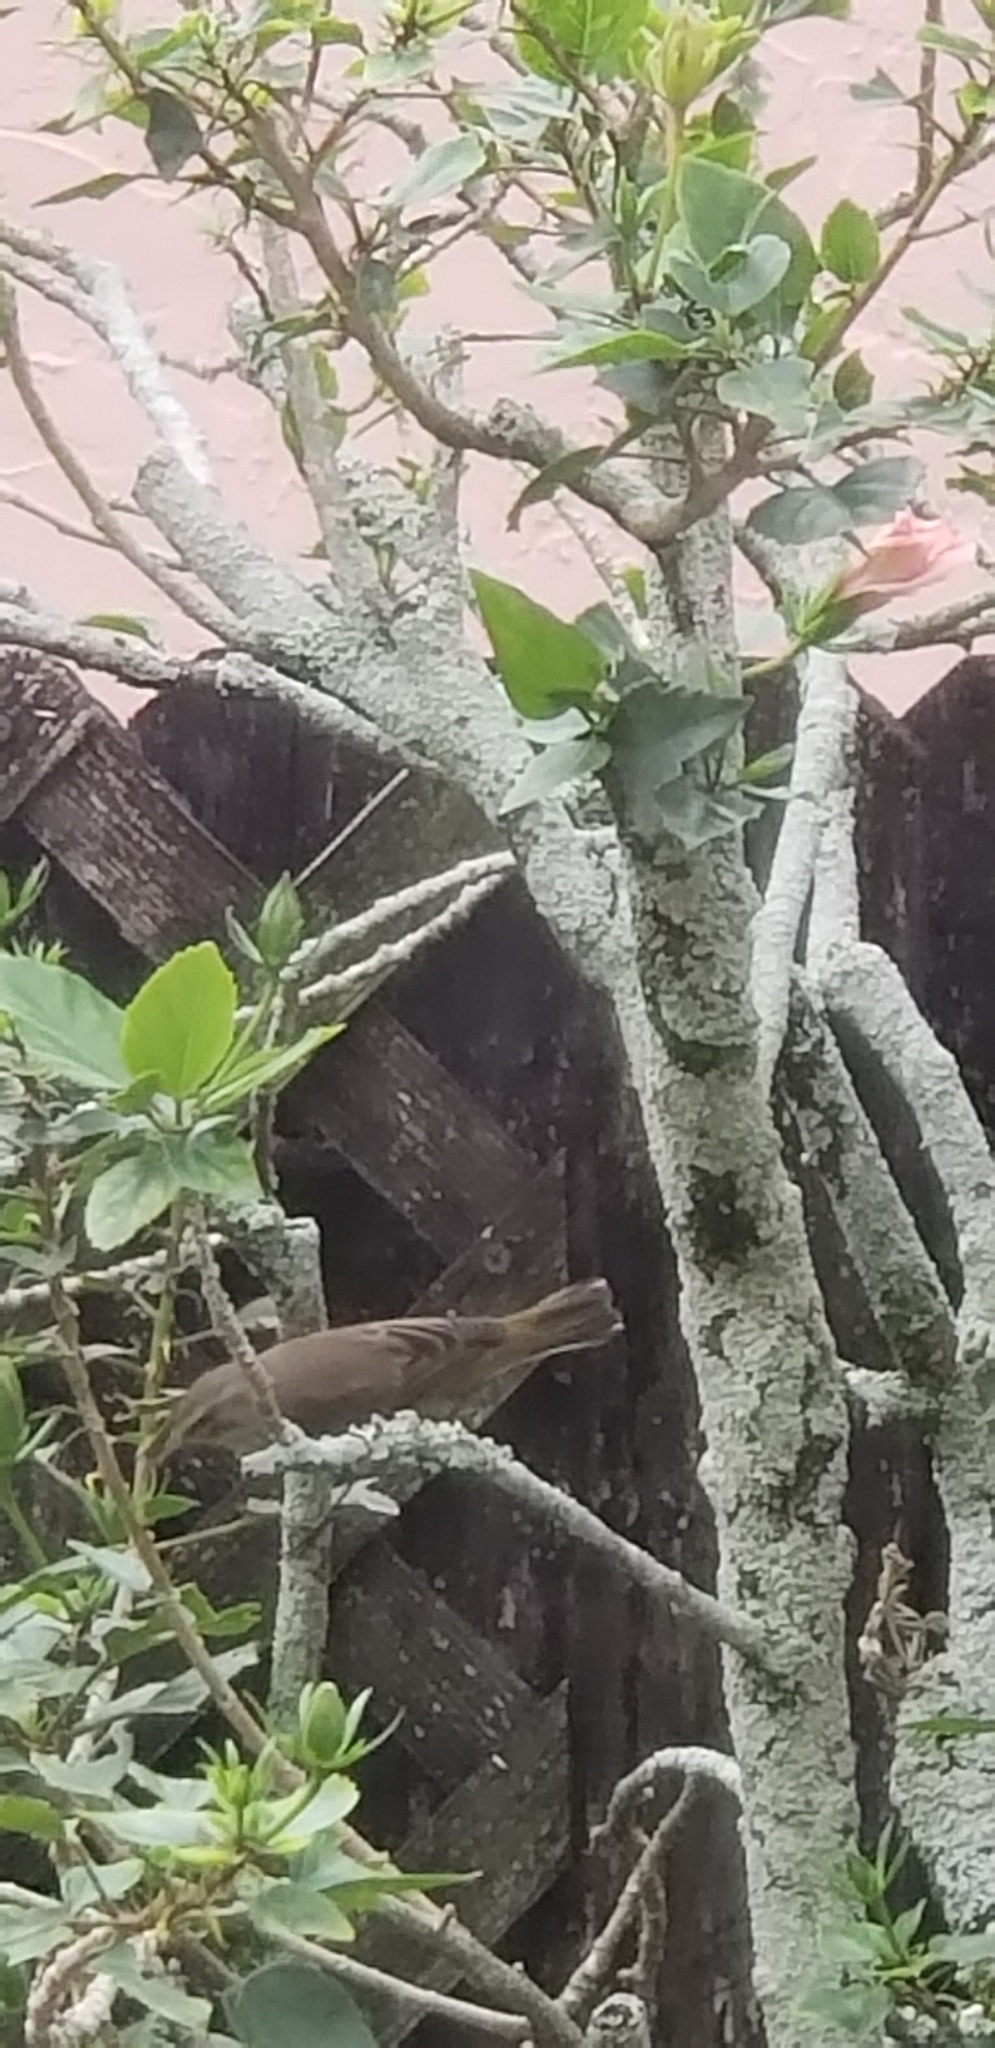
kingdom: Animalia
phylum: Chordata
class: Aves
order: Passeriformes
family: Parulidae
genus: Setophaga
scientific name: Setophaga palmarum
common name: Palm warbler
